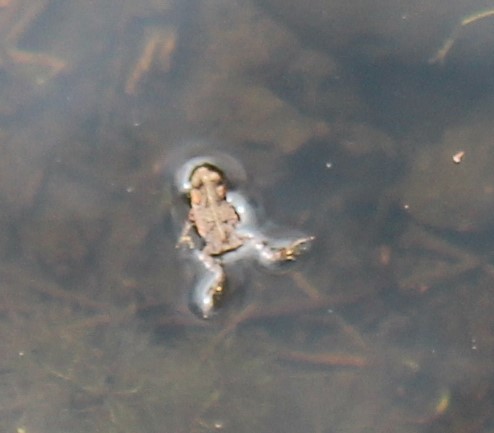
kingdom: Animalia
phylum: Chordata
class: Amphibia
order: Anura
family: Bufonidae
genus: Anaxyrus
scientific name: Anaxyrus boreas
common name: Western toad
